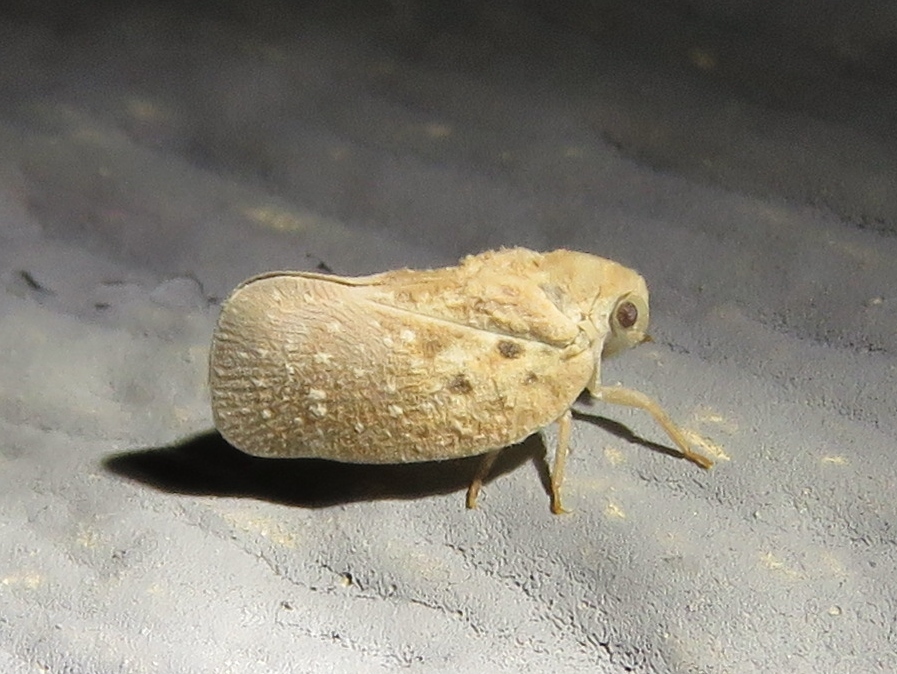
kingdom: Animalia
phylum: Arthropoda
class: Insecta
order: Hemiptera
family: Flatidae
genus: Metcalfa
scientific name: Metcalfa pruinosa
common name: Citrus flatid planthopper
